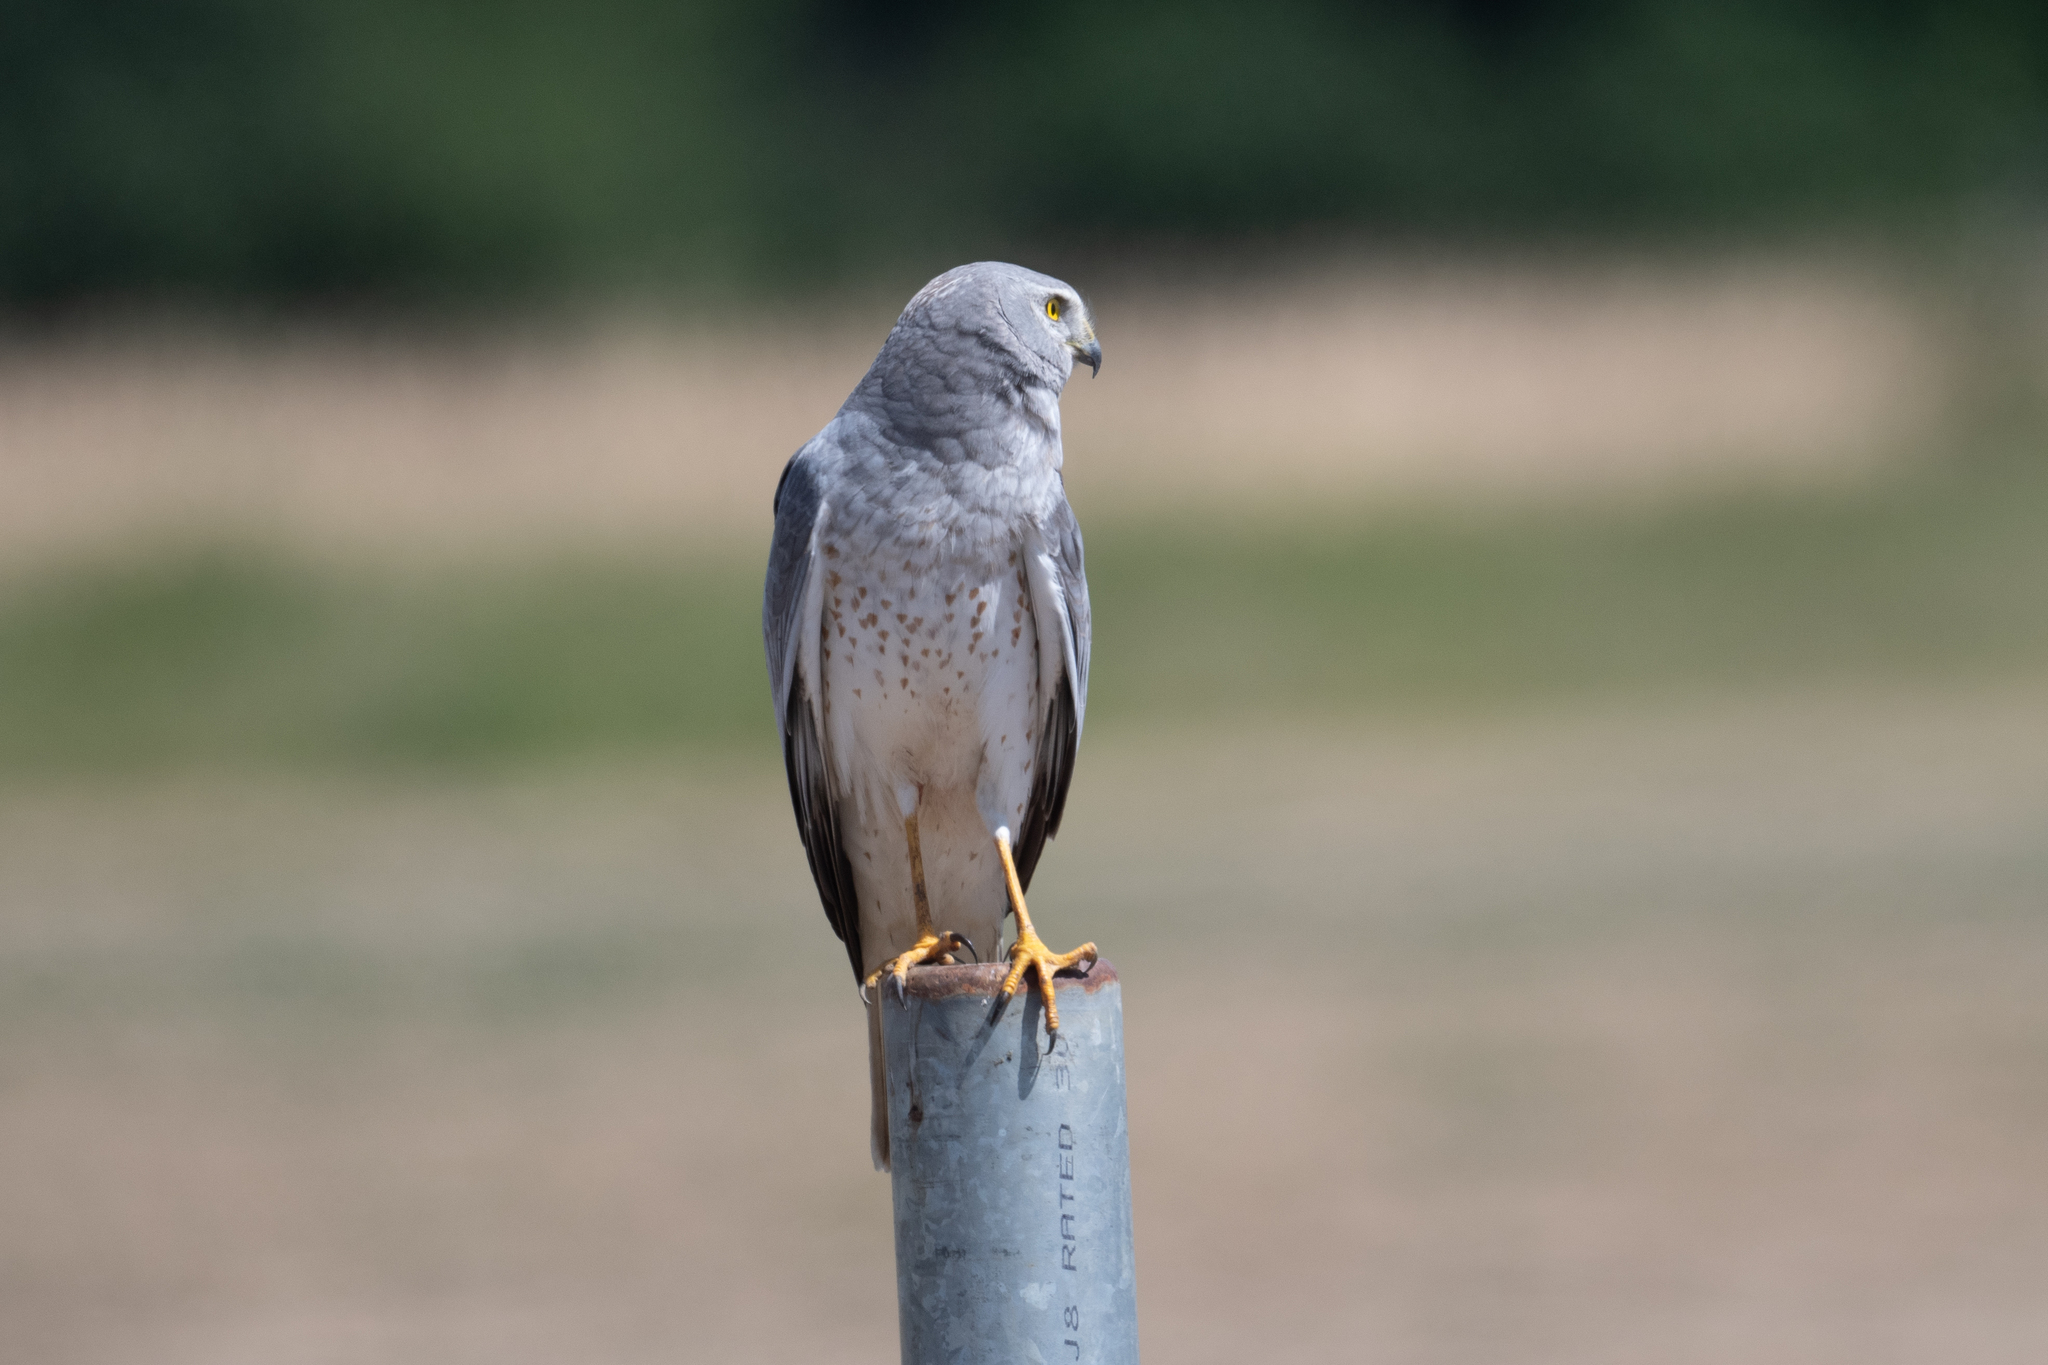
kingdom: Animalia
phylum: Chordata
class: Aves
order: Accipitriformes
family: Accipitridae
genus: Circus
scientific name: Circus cyaneus
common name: Hen harrier
